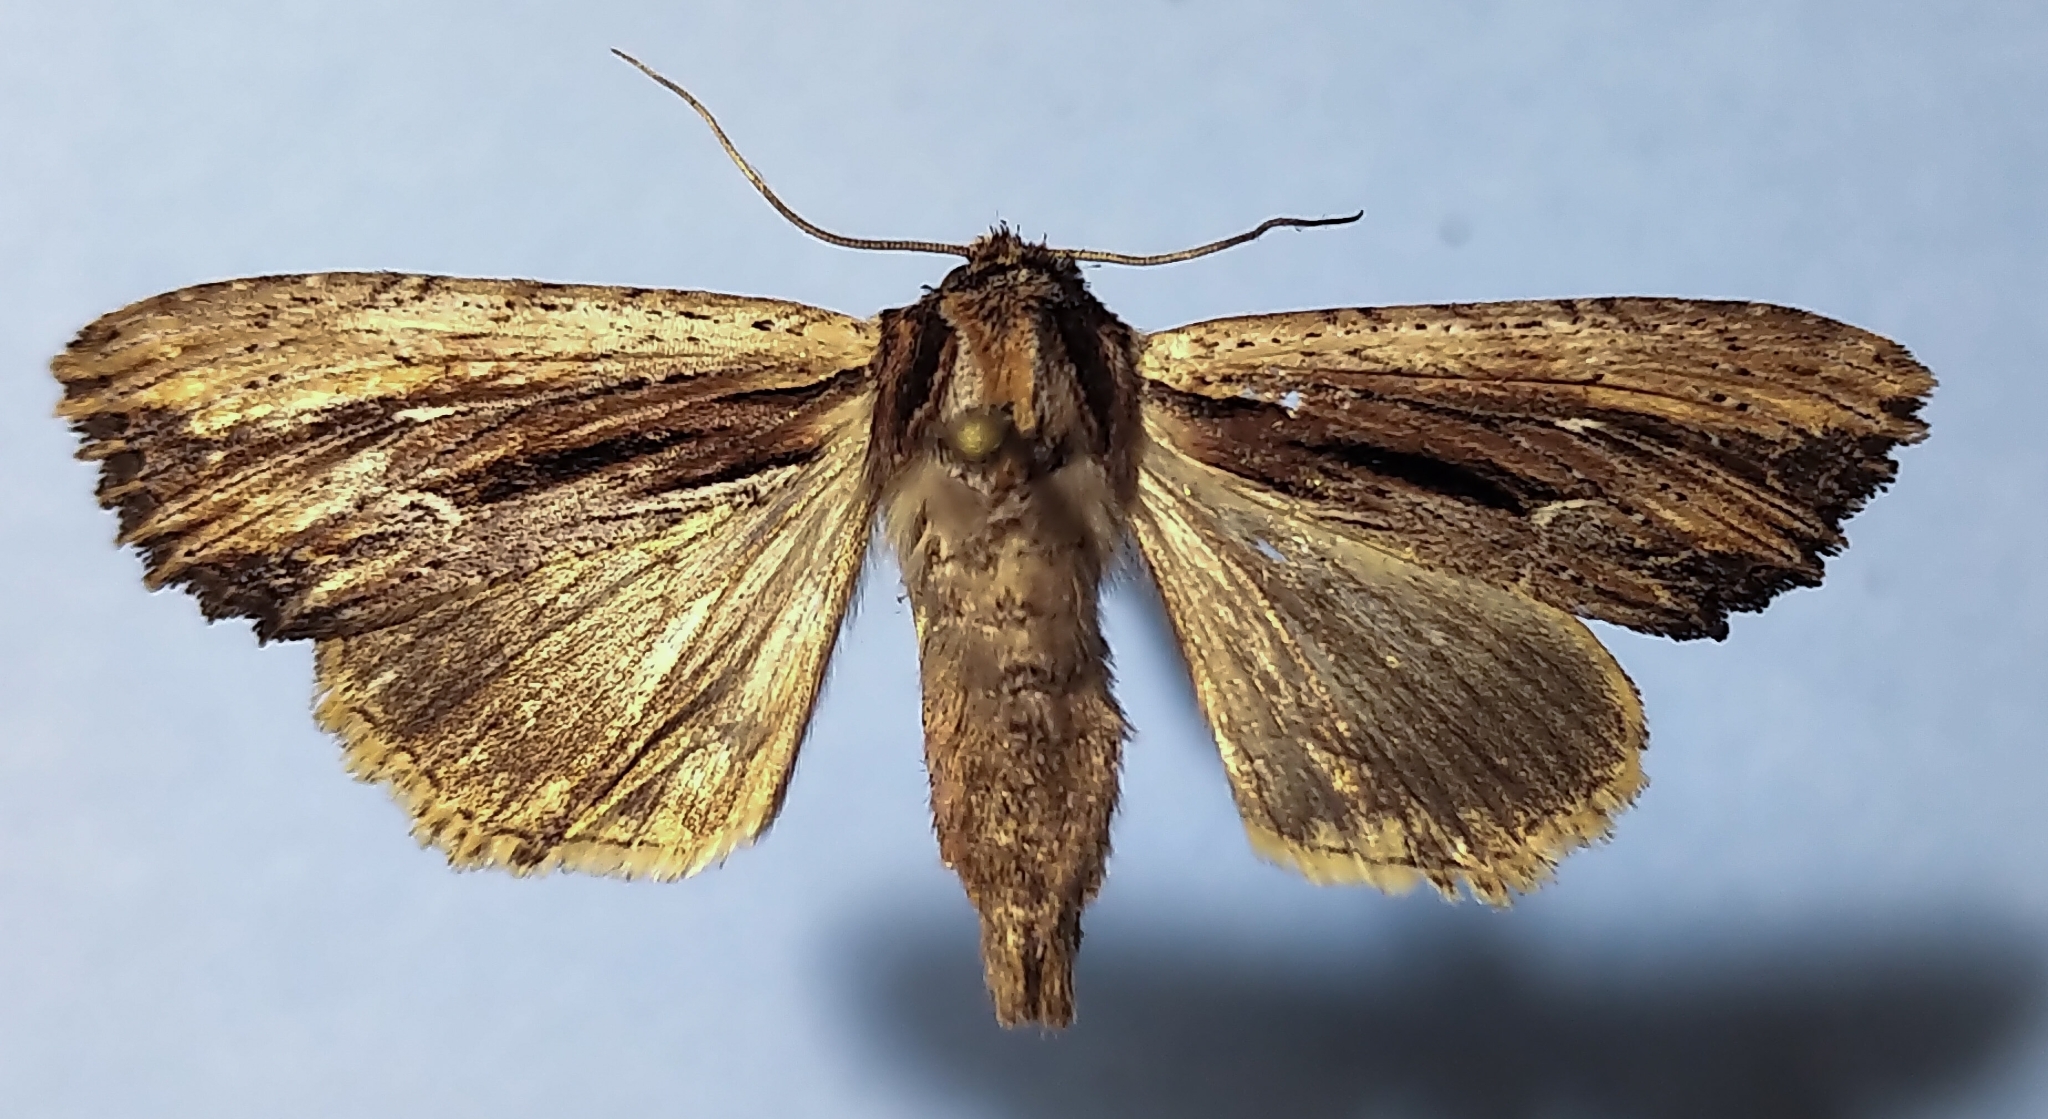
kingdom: Animalia
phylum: Arthropoda
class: Insecta
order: Lepidoptera
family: Noctuidae
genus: Apamea
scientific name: Apamea verbascoides
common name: Mullein apamea moth
